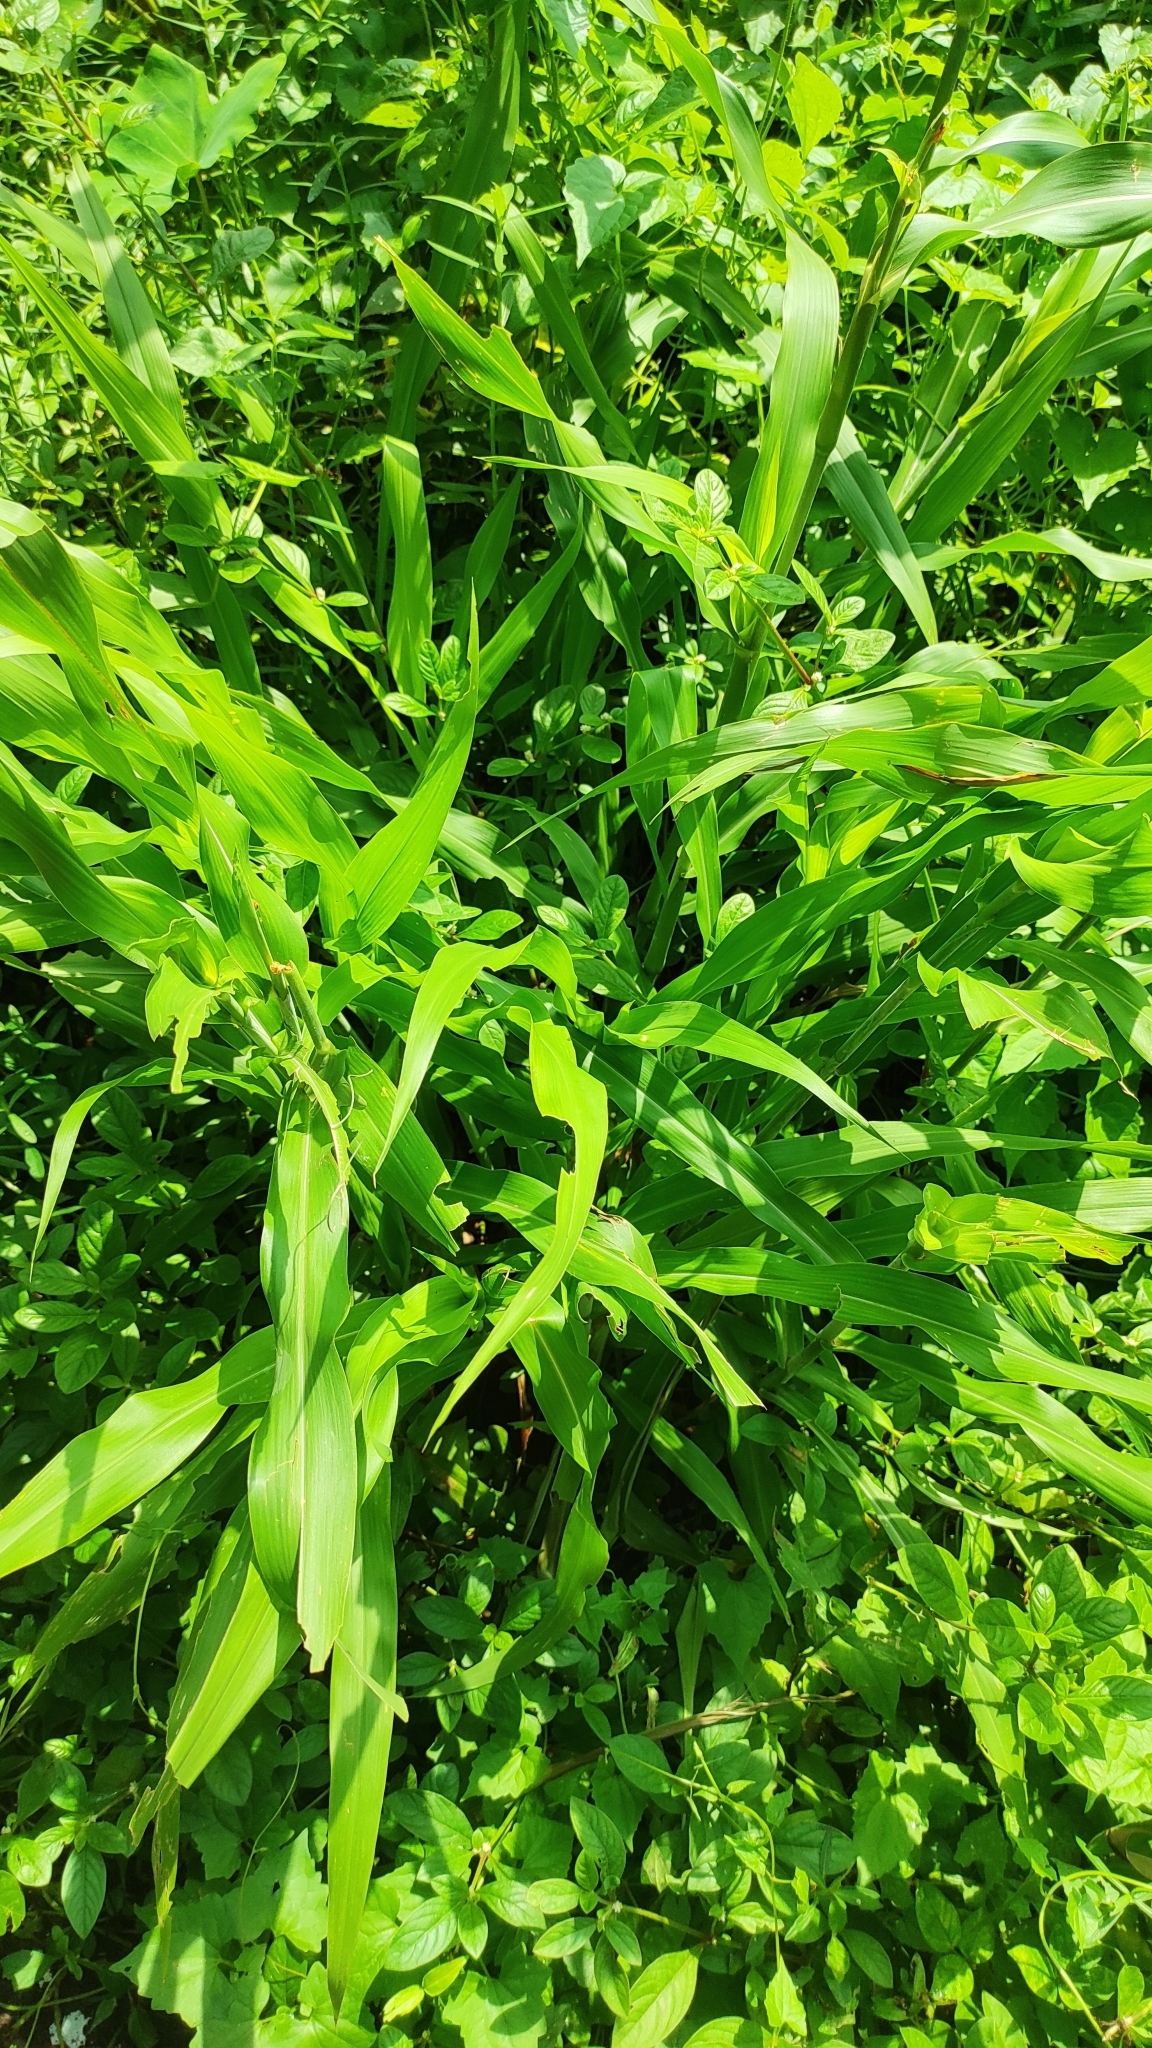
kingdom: Plantae
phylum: Tracheophyta
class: Liliopsida
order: Poales
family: Poaceae
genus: Coix
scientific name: Coix lacryma-jobi
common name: Job's tears
